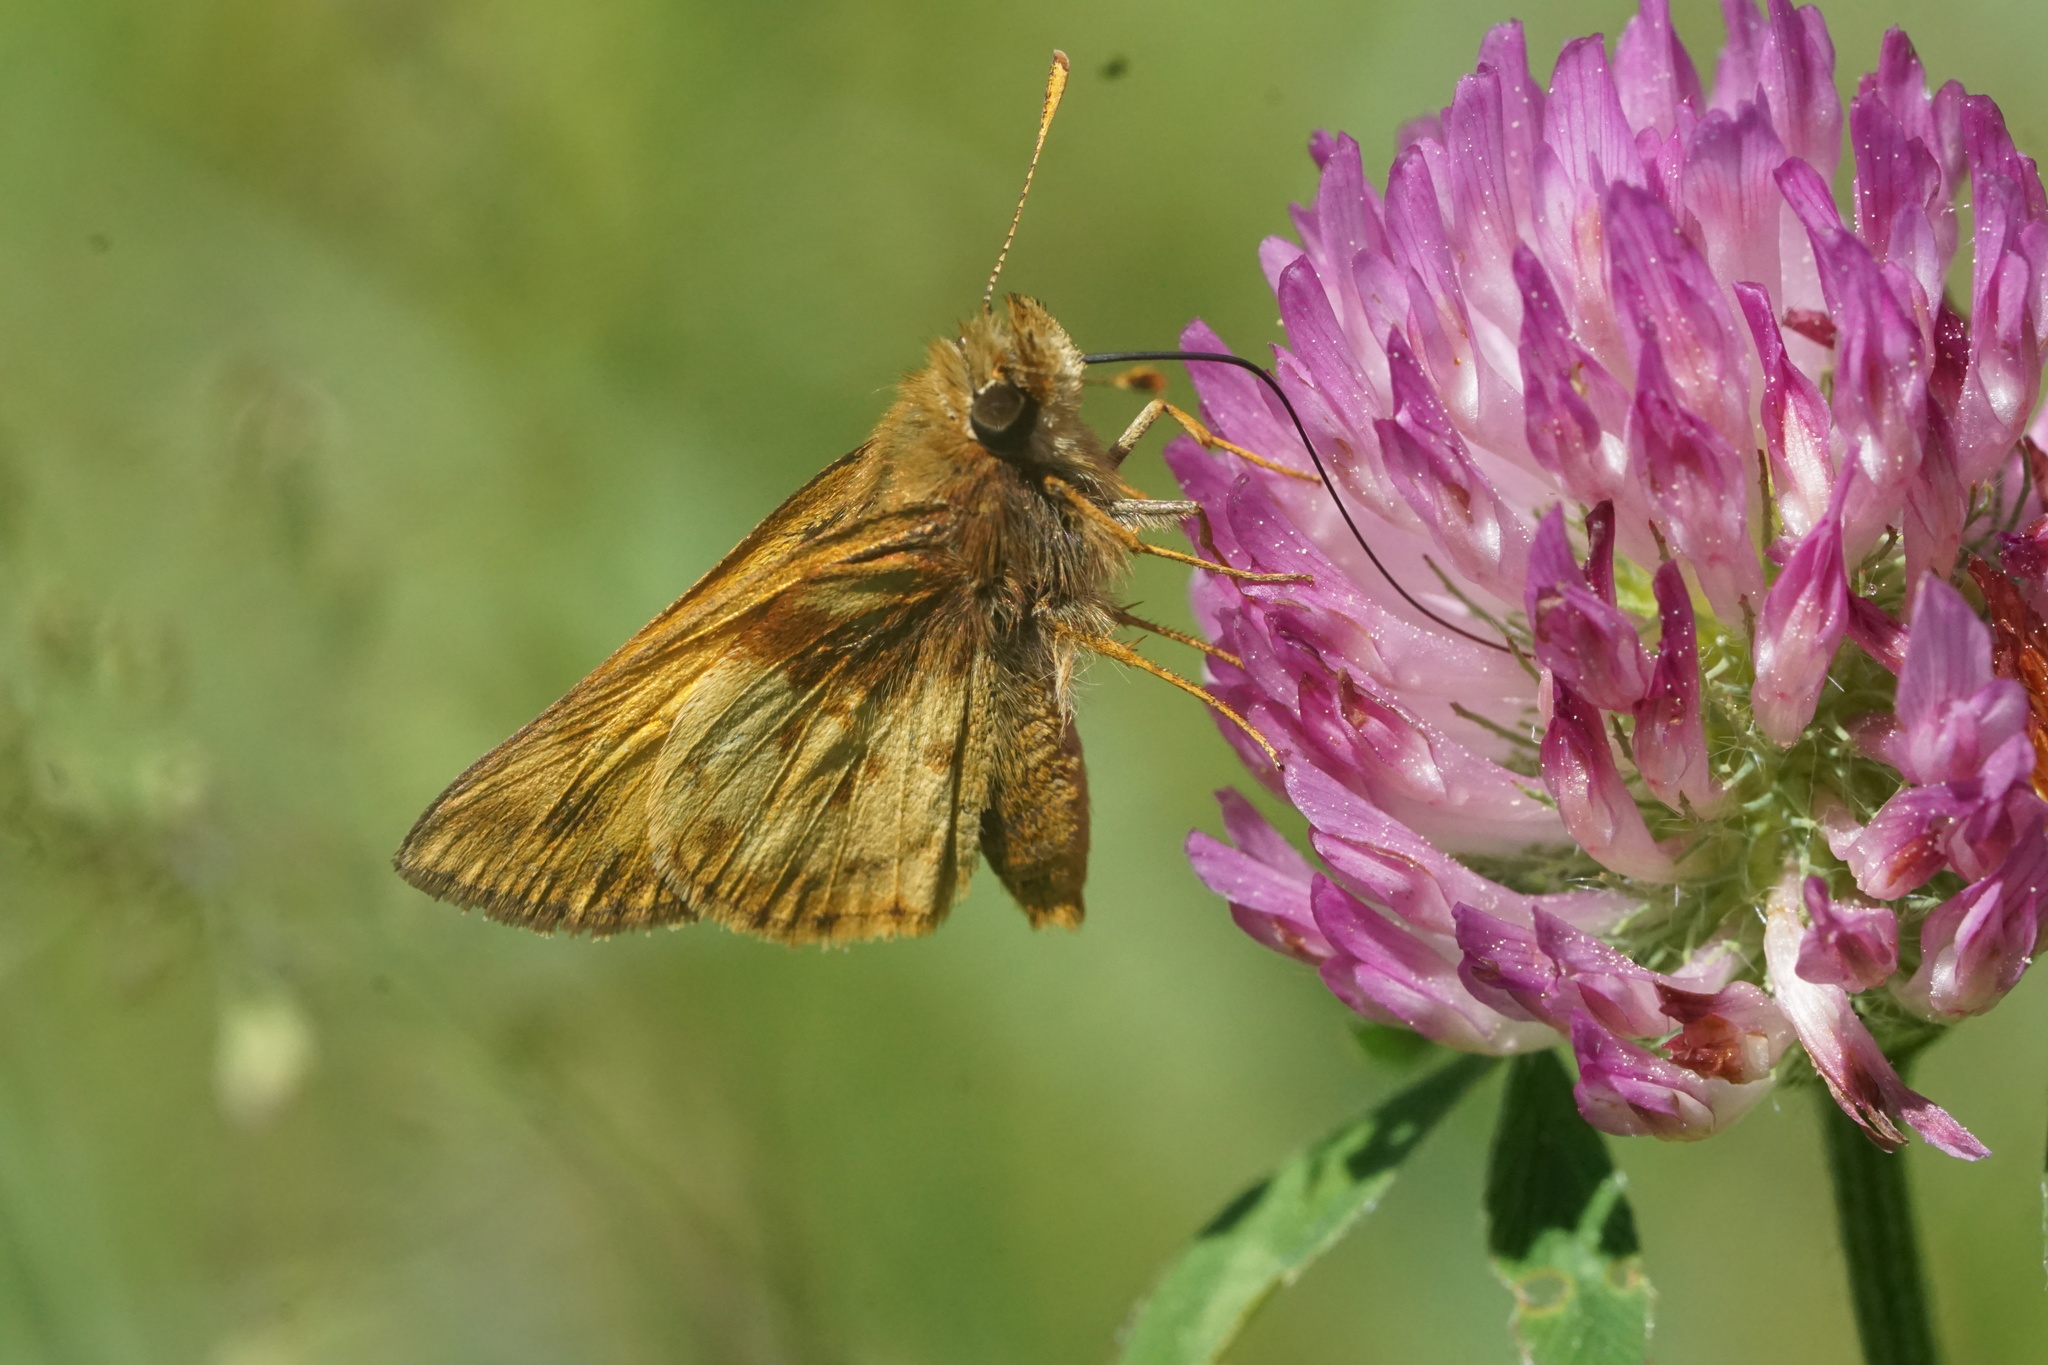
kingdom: Animalia
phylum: Arthropoda
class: Insecta
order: Lepidoptera
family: Hesperiidae
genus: Lon
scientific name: Lon zabulon
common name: Zabulon skipper
